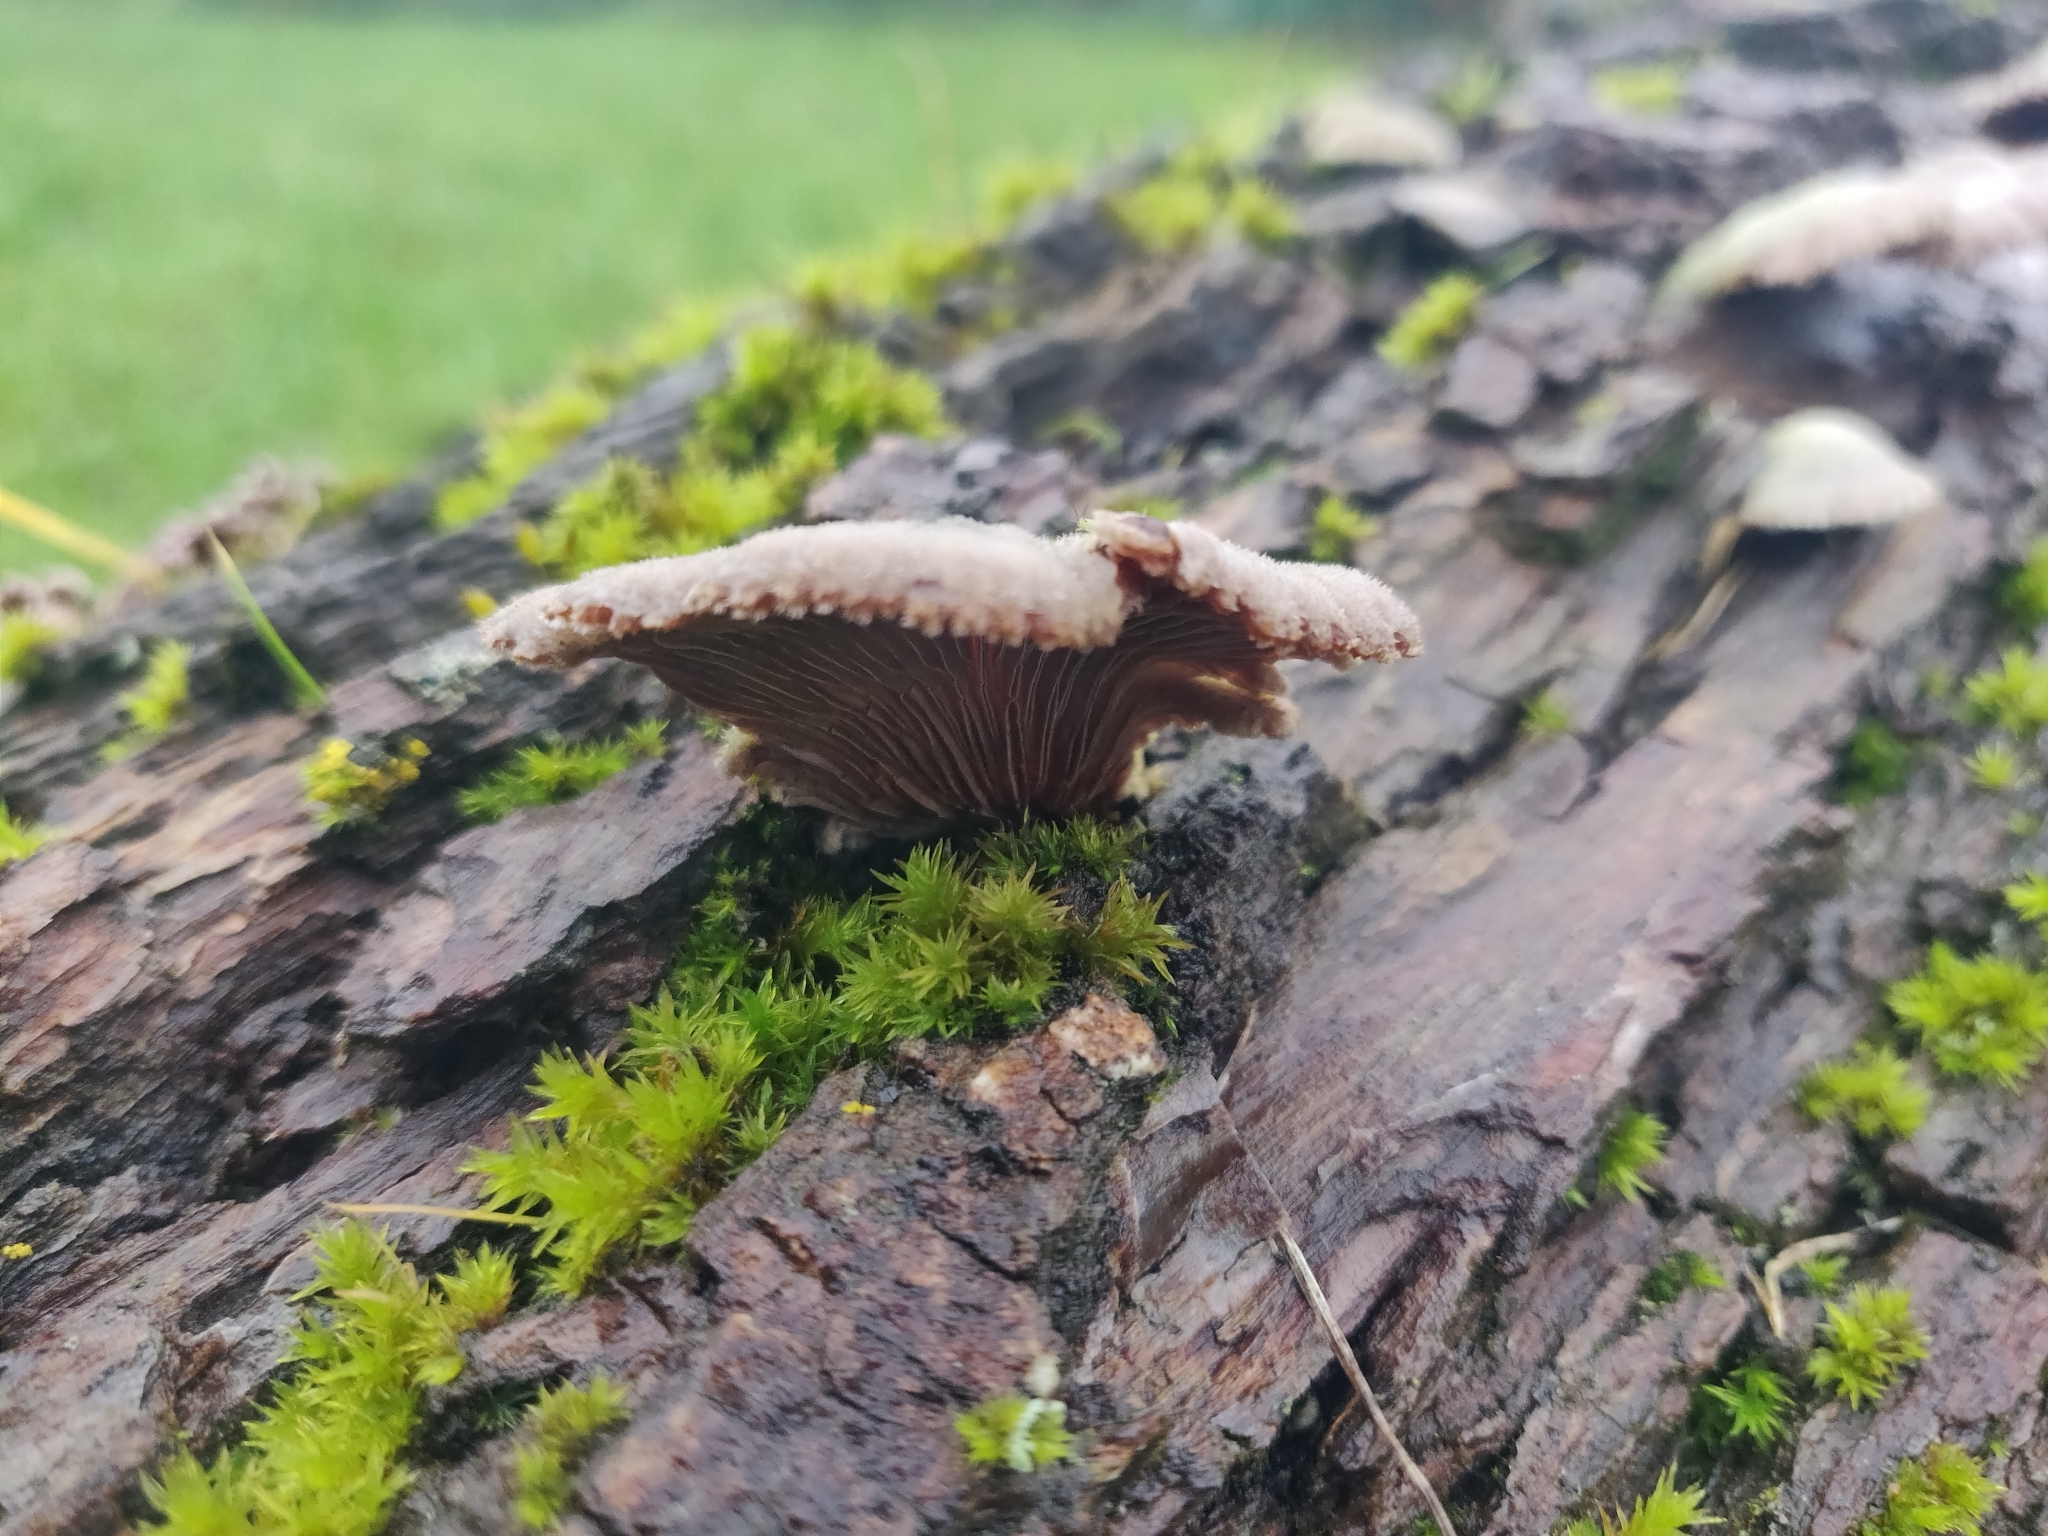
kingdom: Fungi
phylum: Basidiomycota
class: Agaricomycetes
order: Agaricales
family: Schizophyllaceae
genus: Schizophyllum
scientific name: Schizophyllum commune
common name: Common porecrust
